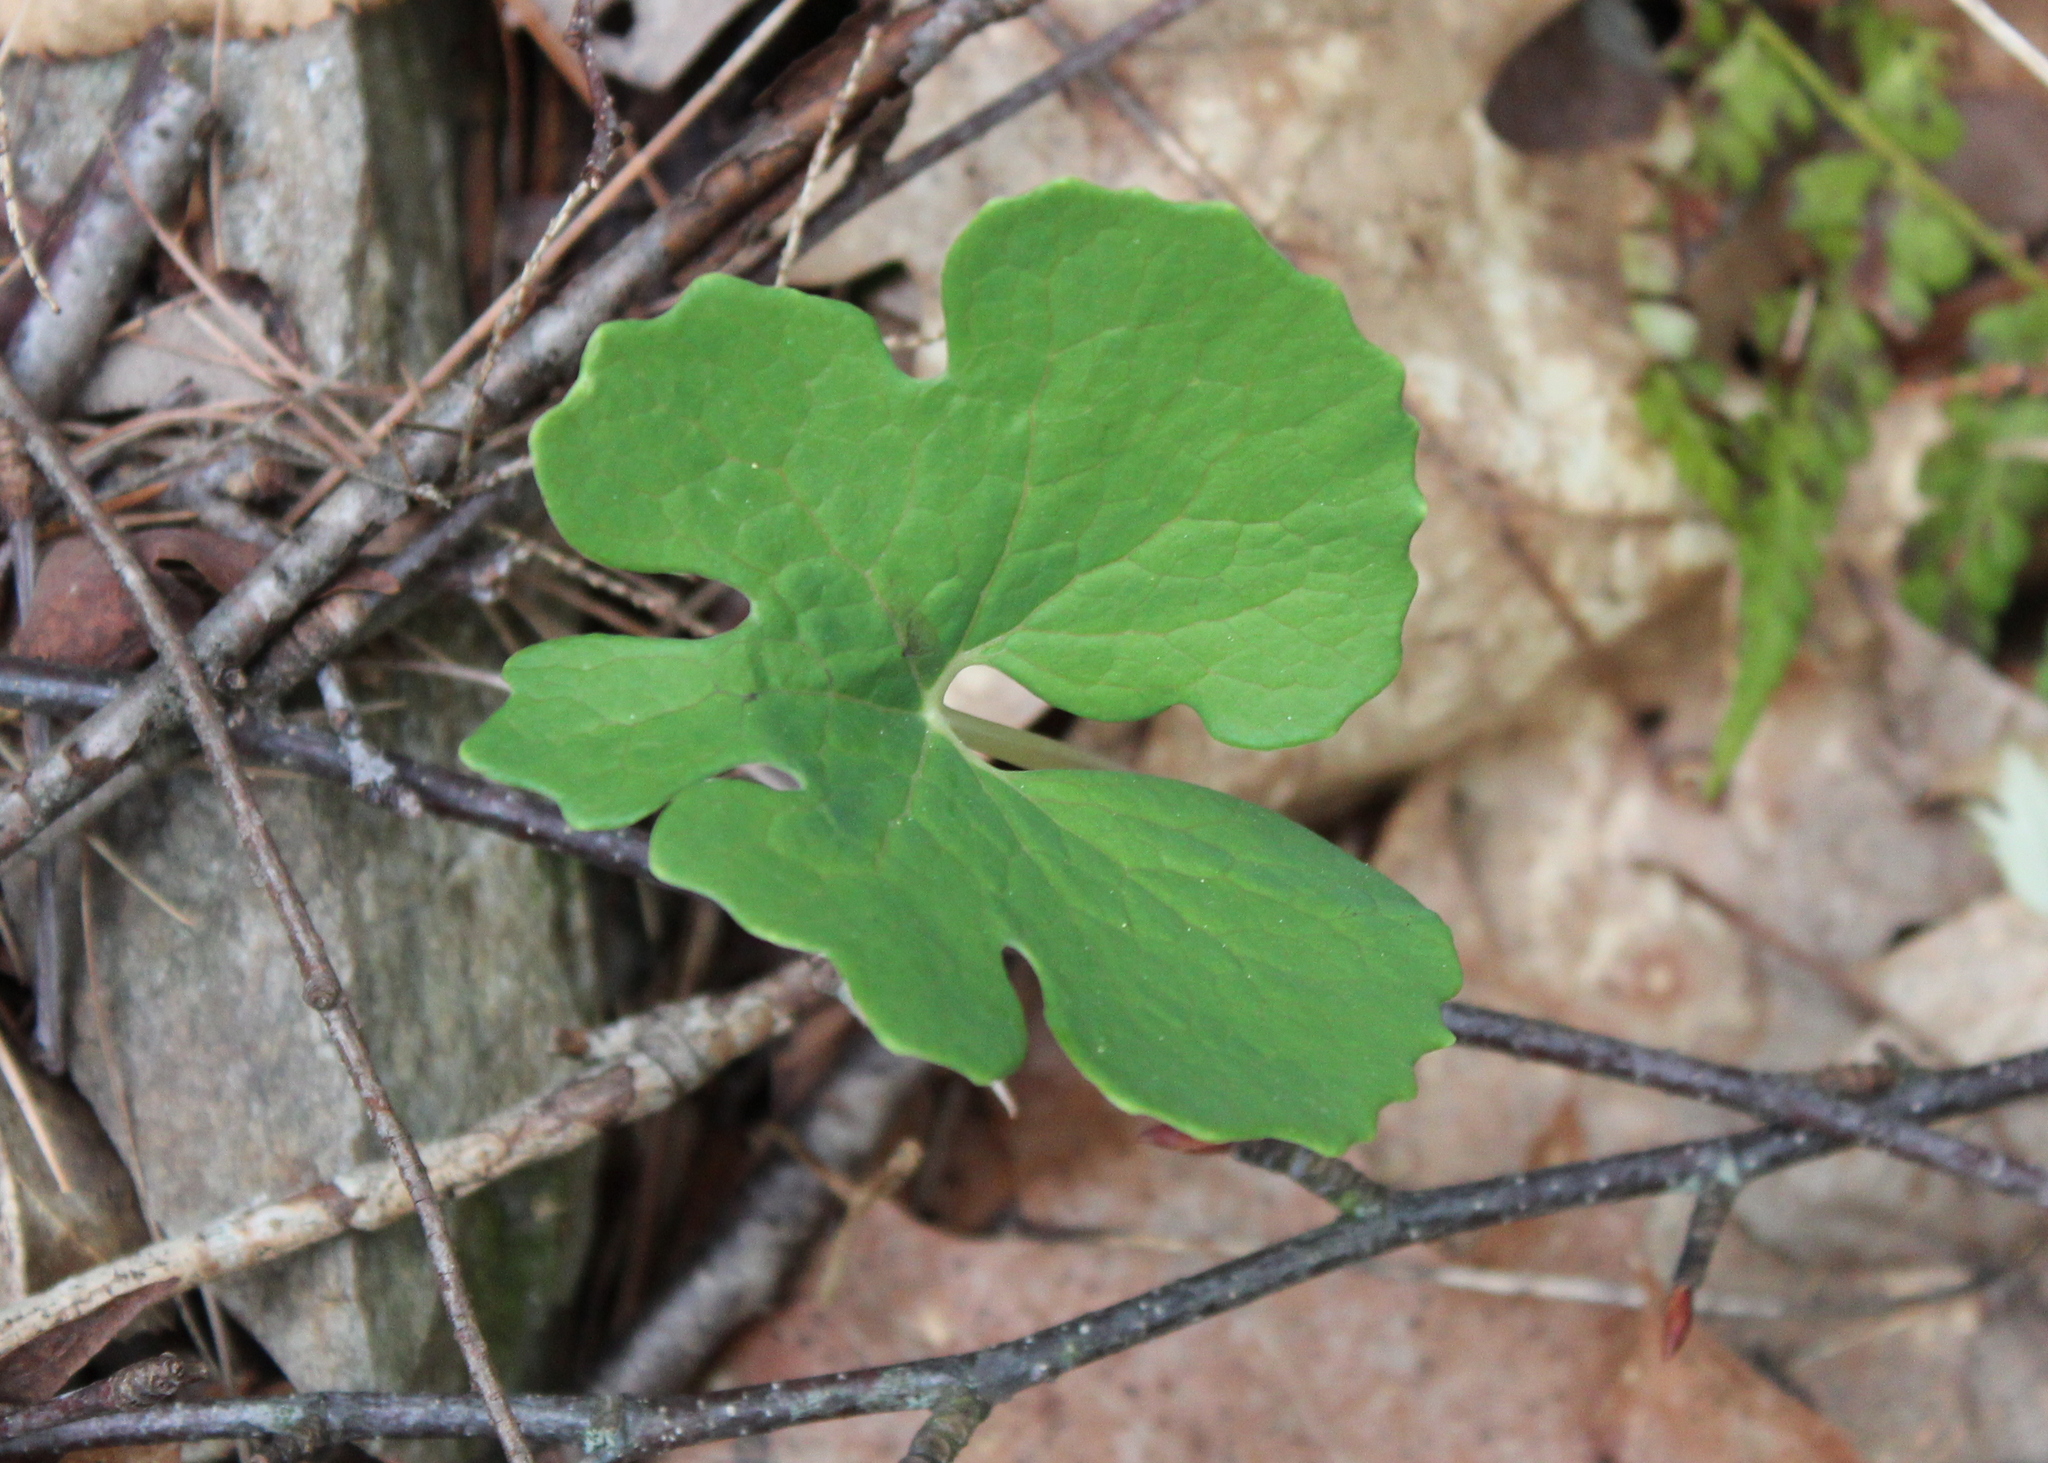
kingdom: Plantae
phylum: Tracheophyta
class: Magnoliopsida
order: Ranunculales
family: Papaveraceae
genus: Sanguinaria
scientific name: Sanguinaria canadensis
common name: Bloodroot
